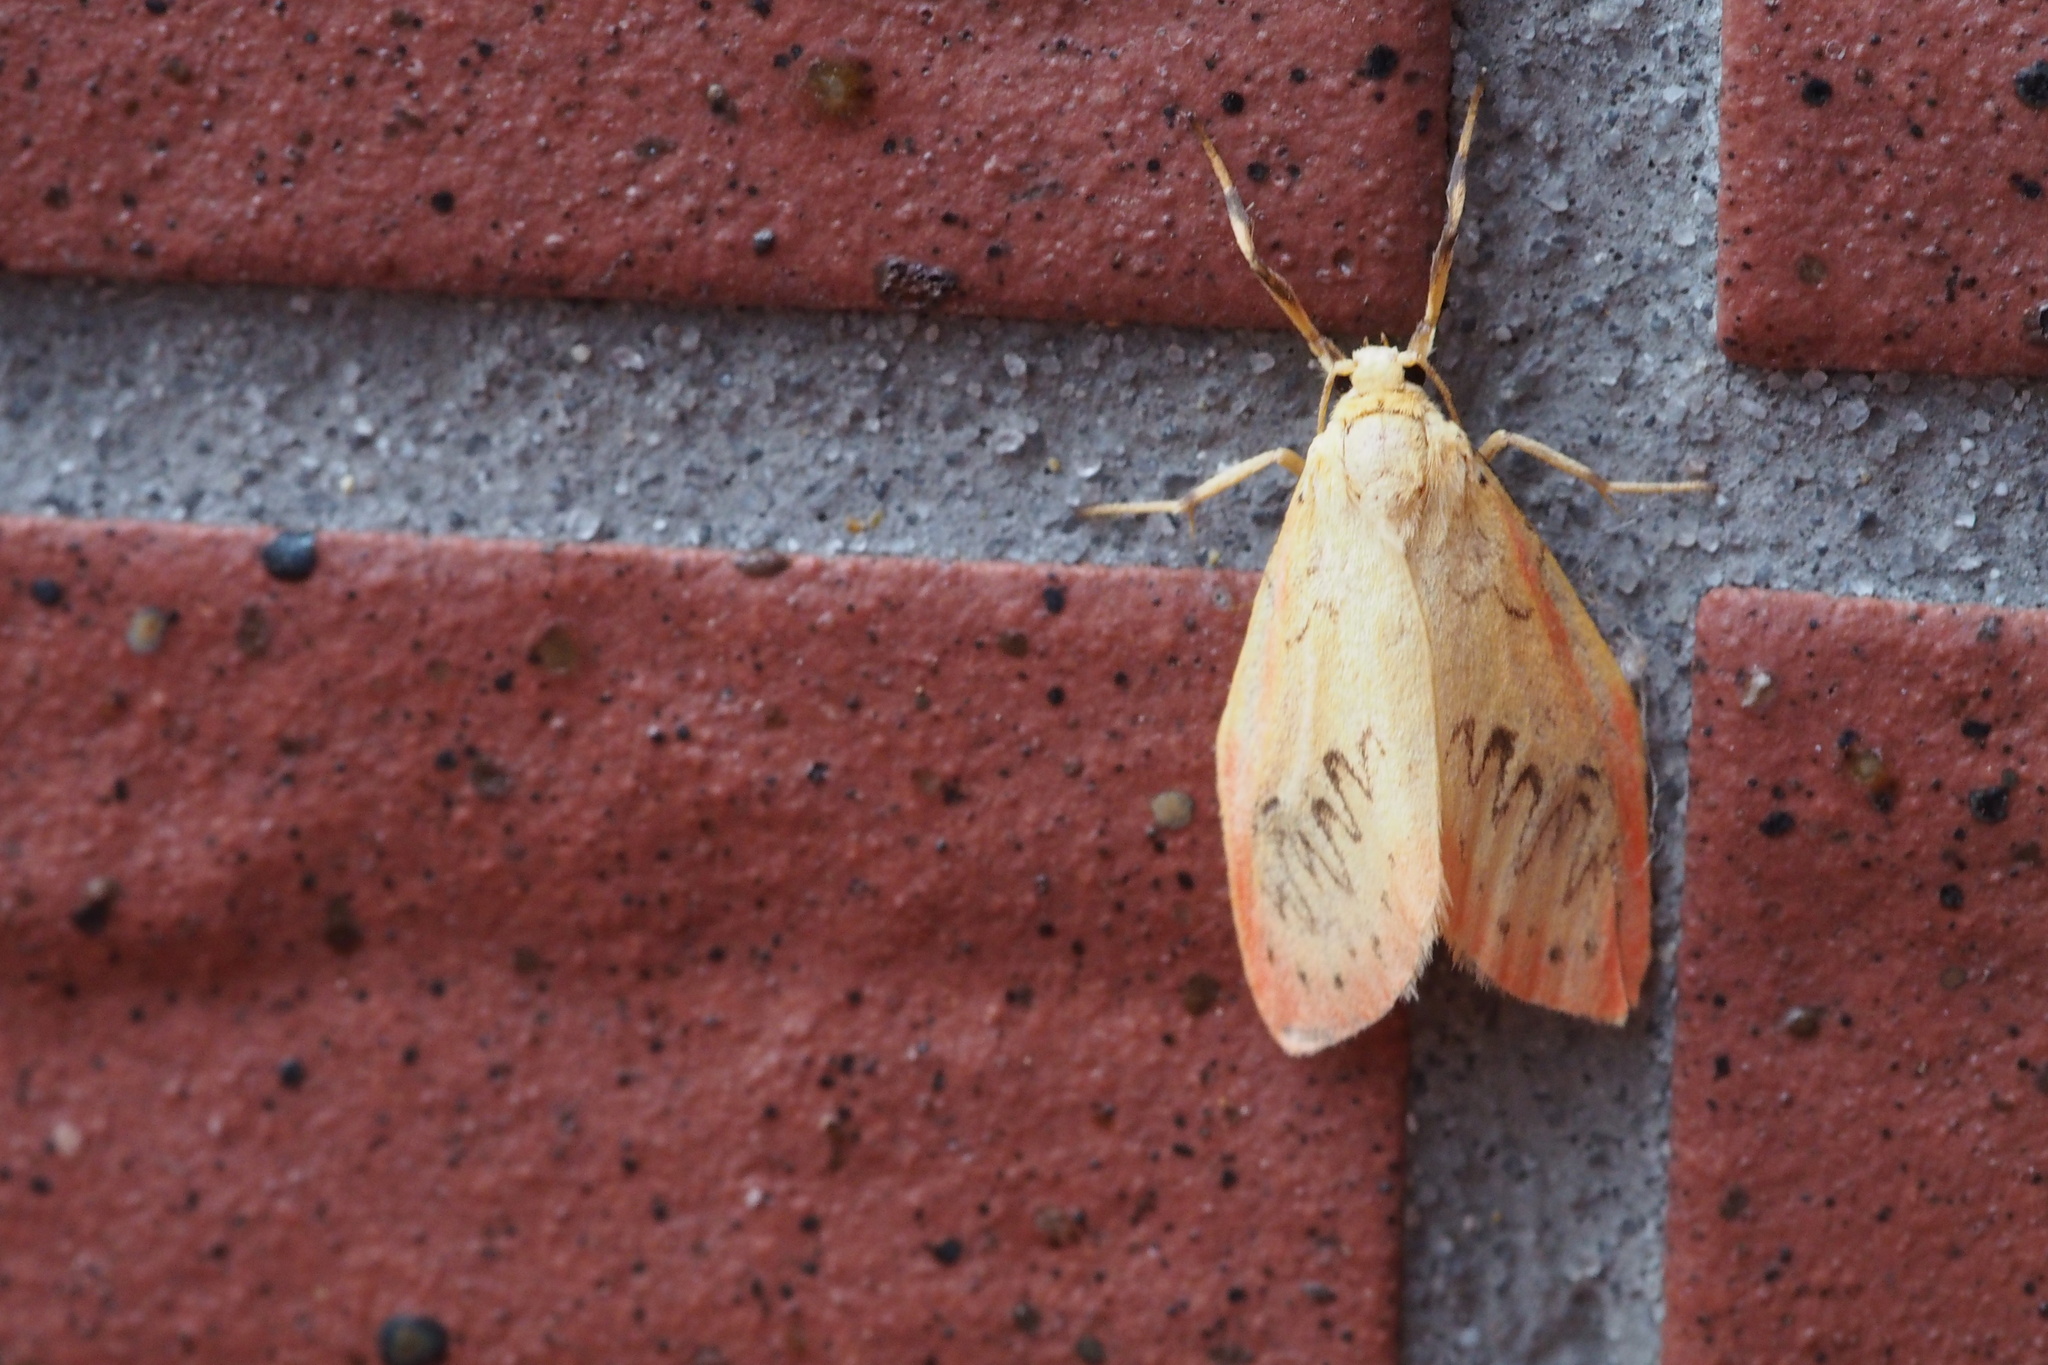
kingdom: Animalia
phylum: Arthropoda
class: Insecta
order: Lepidoptera
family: Erebidae
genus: Miltochrista
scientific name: Miltochrista miniata
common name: Rosy footman
